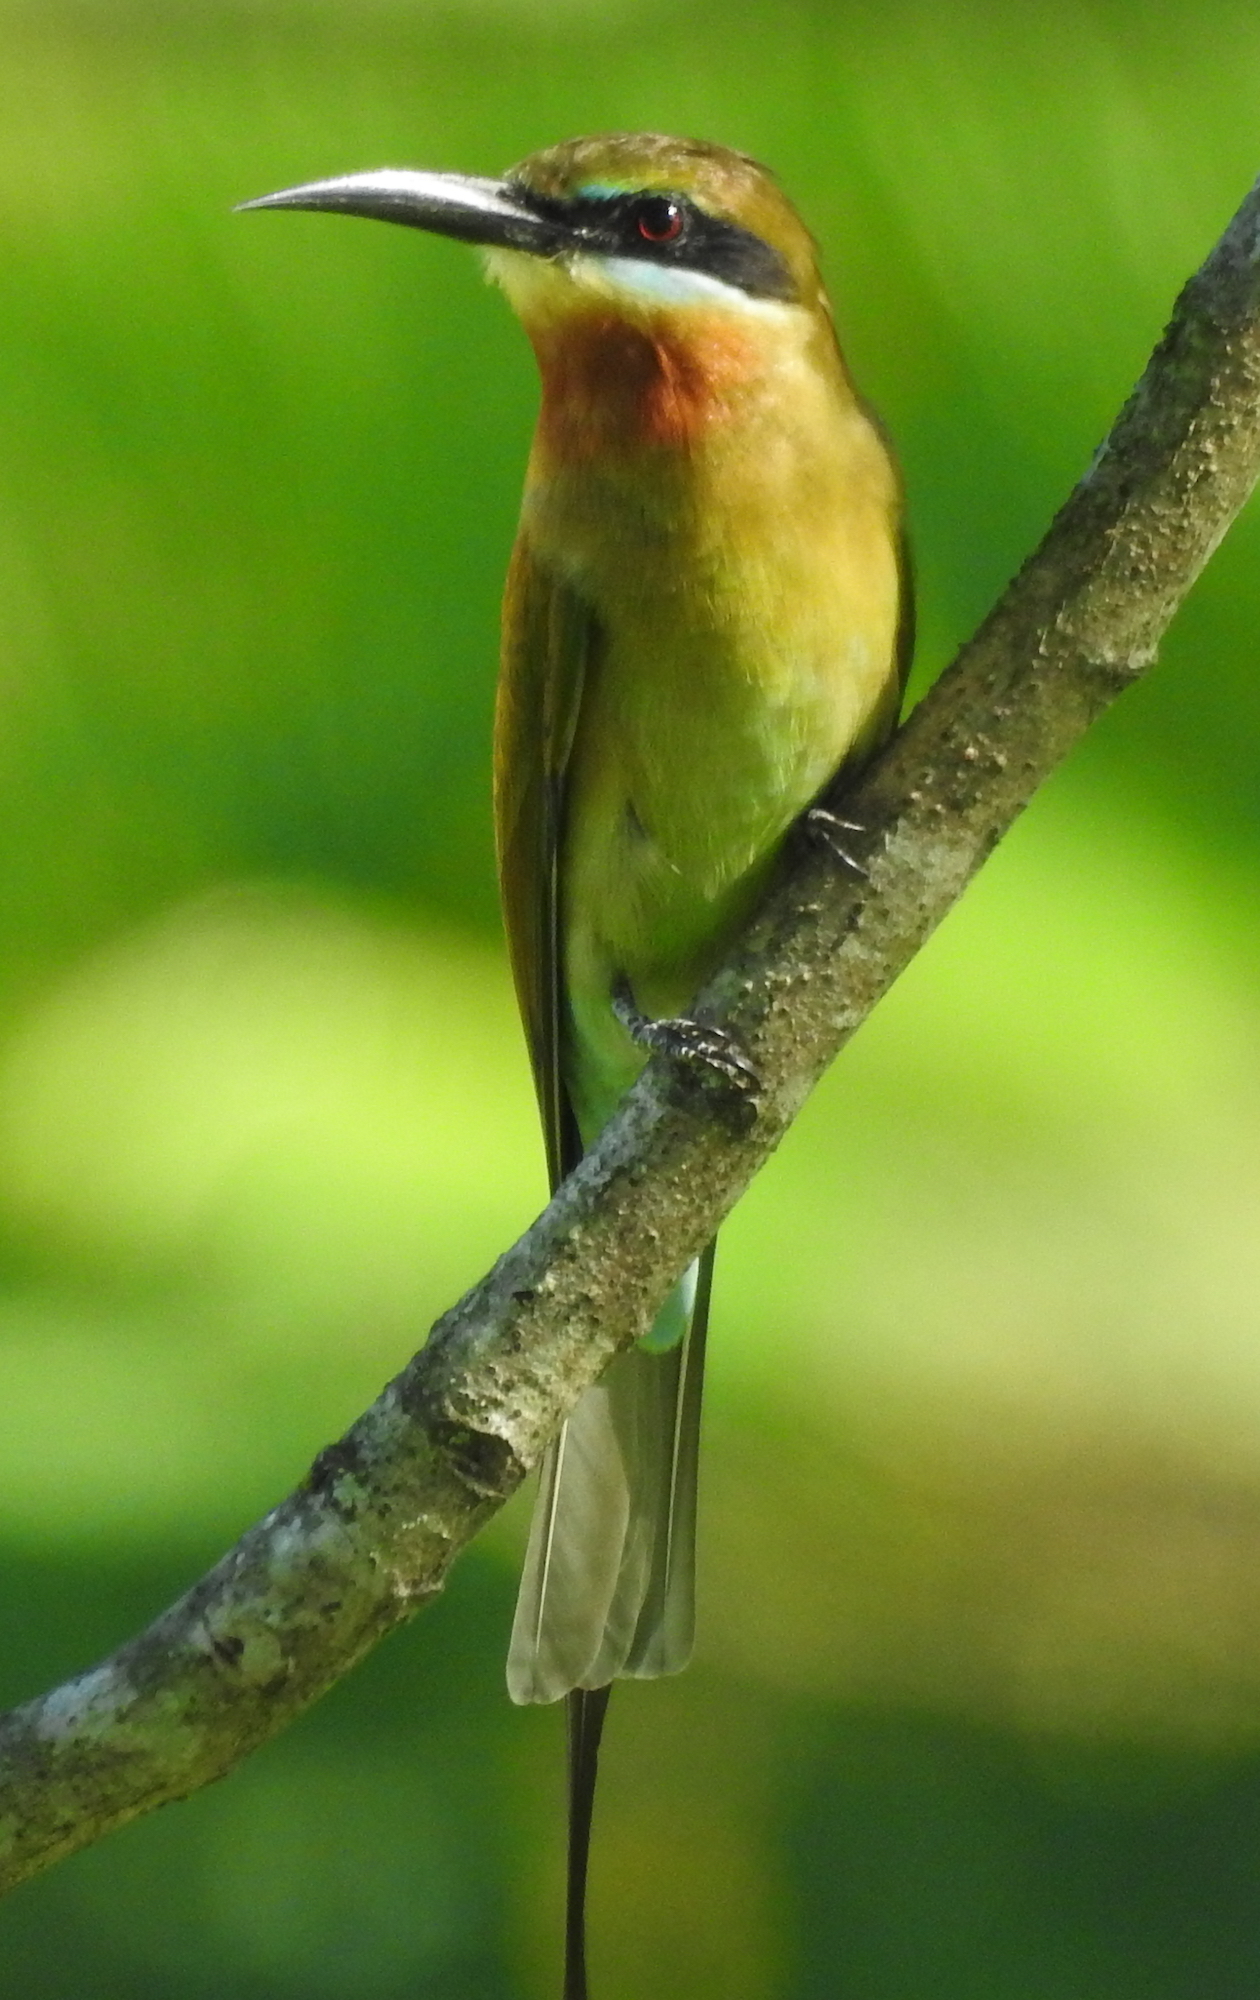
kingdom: Animalia
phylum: Chordata
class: Aves
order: Coraciiformes
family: Meropidae
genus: Merops
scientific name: Merops philippinus
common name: Blue-tailed bee-eater
